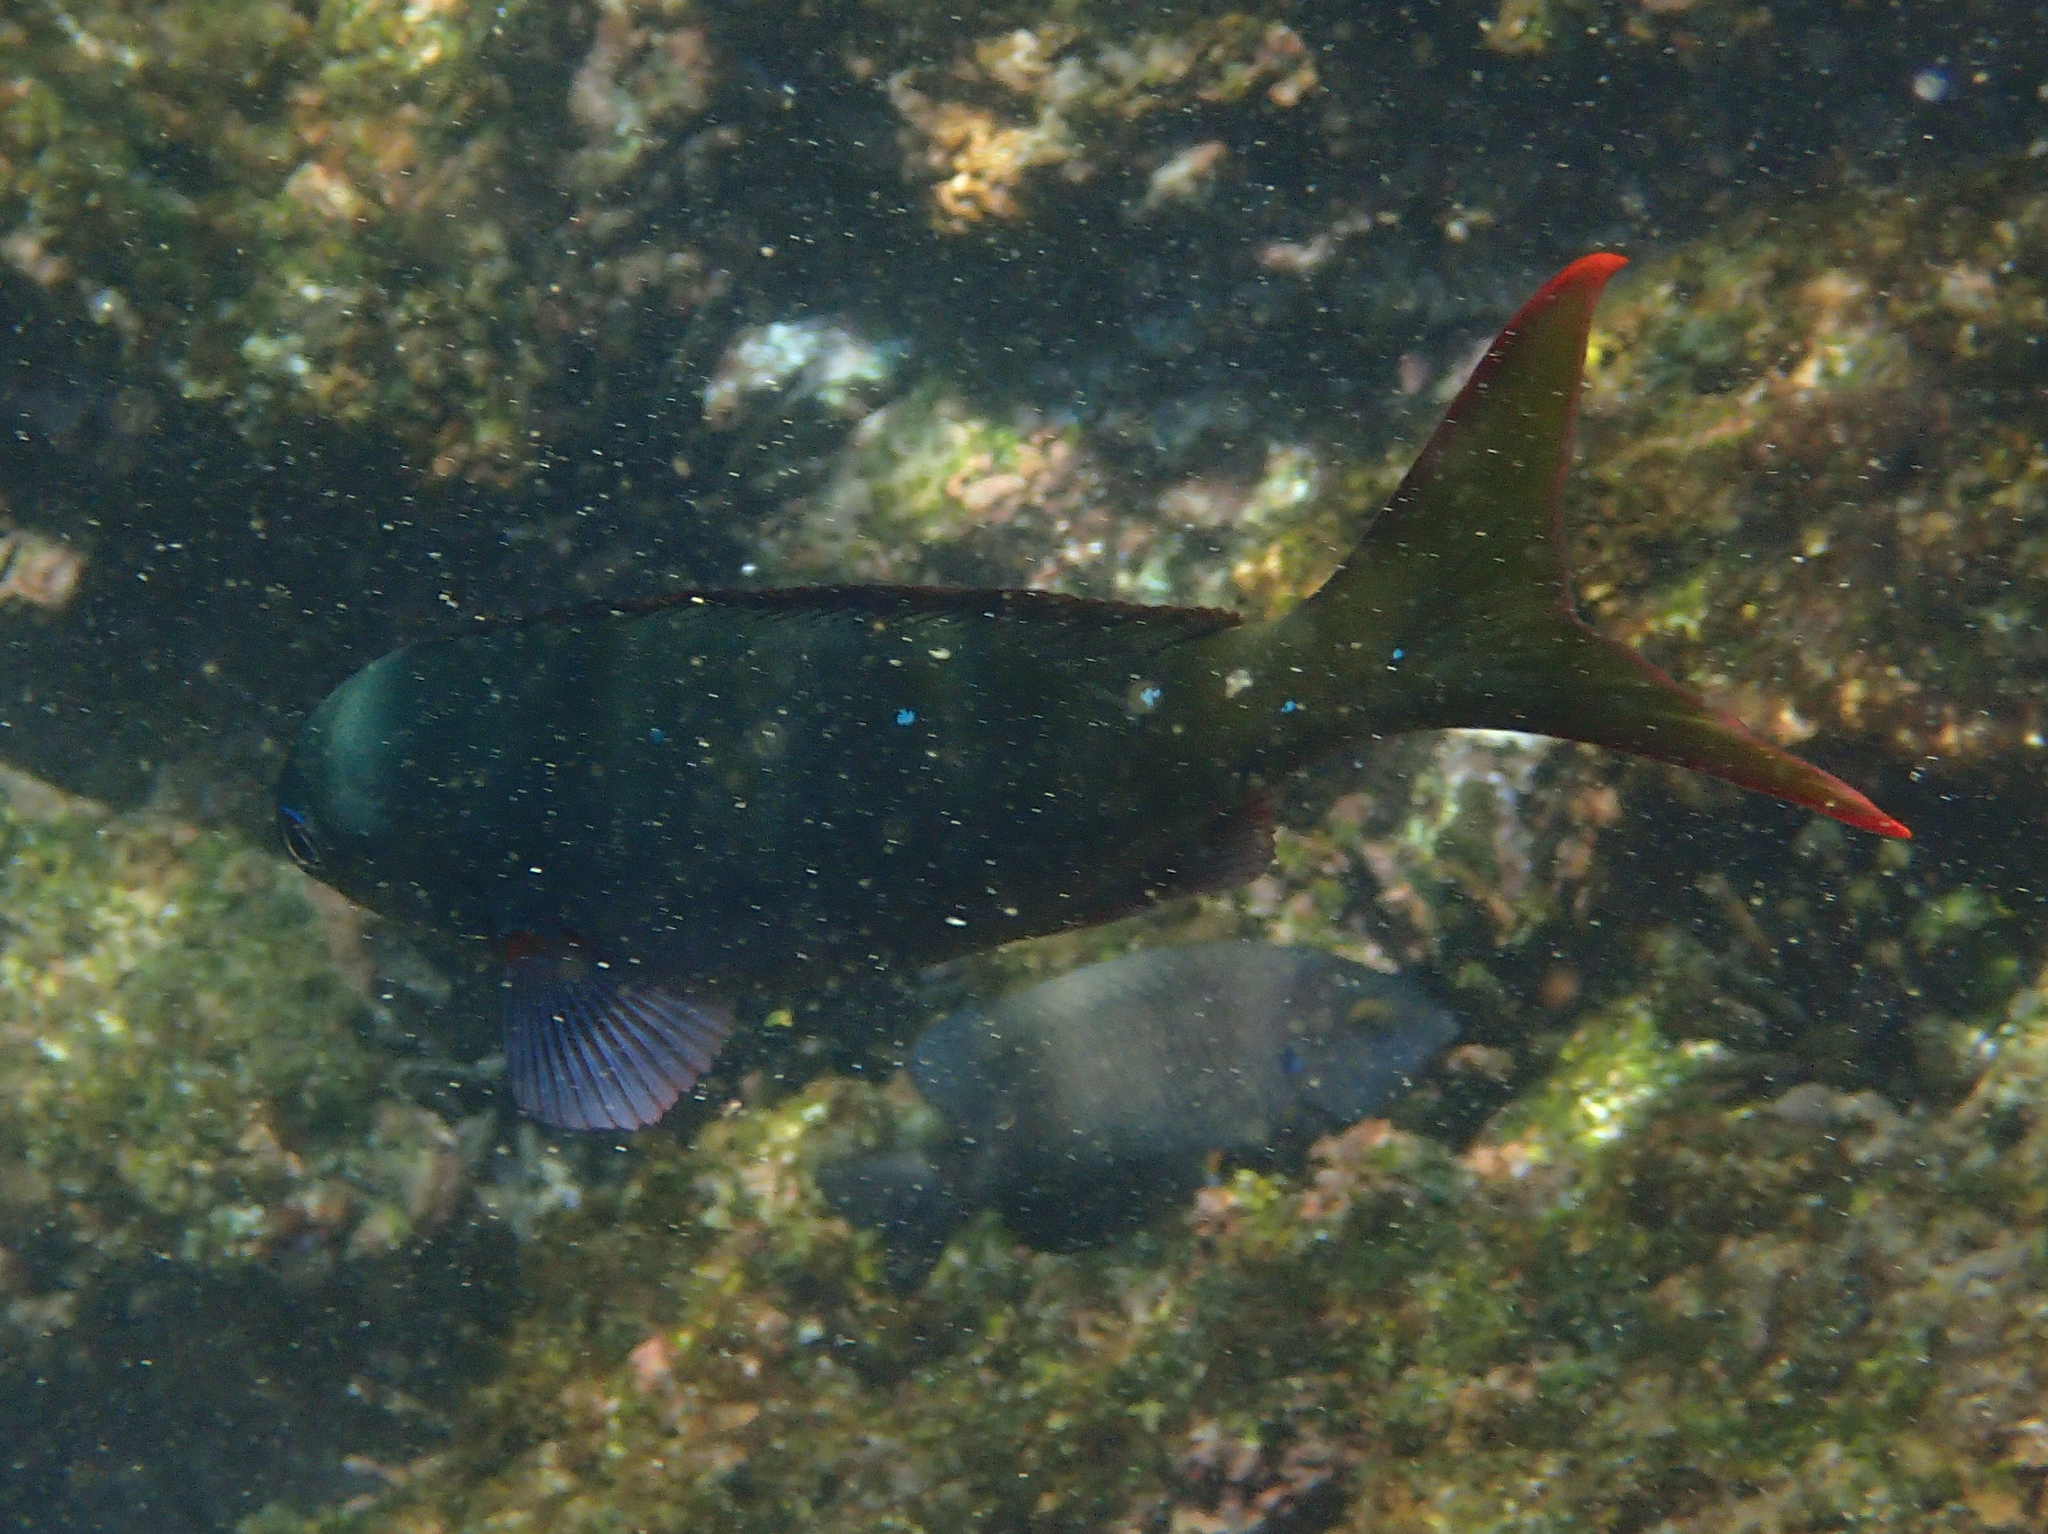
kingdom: Animalia
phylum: Chordata
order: Perciformes
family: Serranidae
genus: Paranthias
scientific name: Paranthias colonus
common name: Pacific creole-fish
